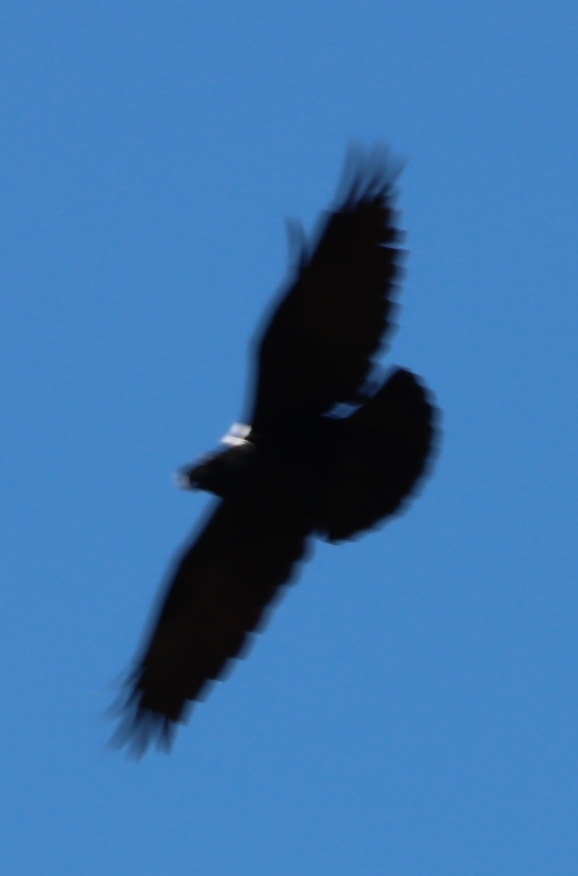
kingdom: Animalia
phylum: Chordata
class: Aves
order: Passeriformes
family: Corvidae
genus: Corvus
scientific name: Corvus albicollis
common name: White-necked raven
